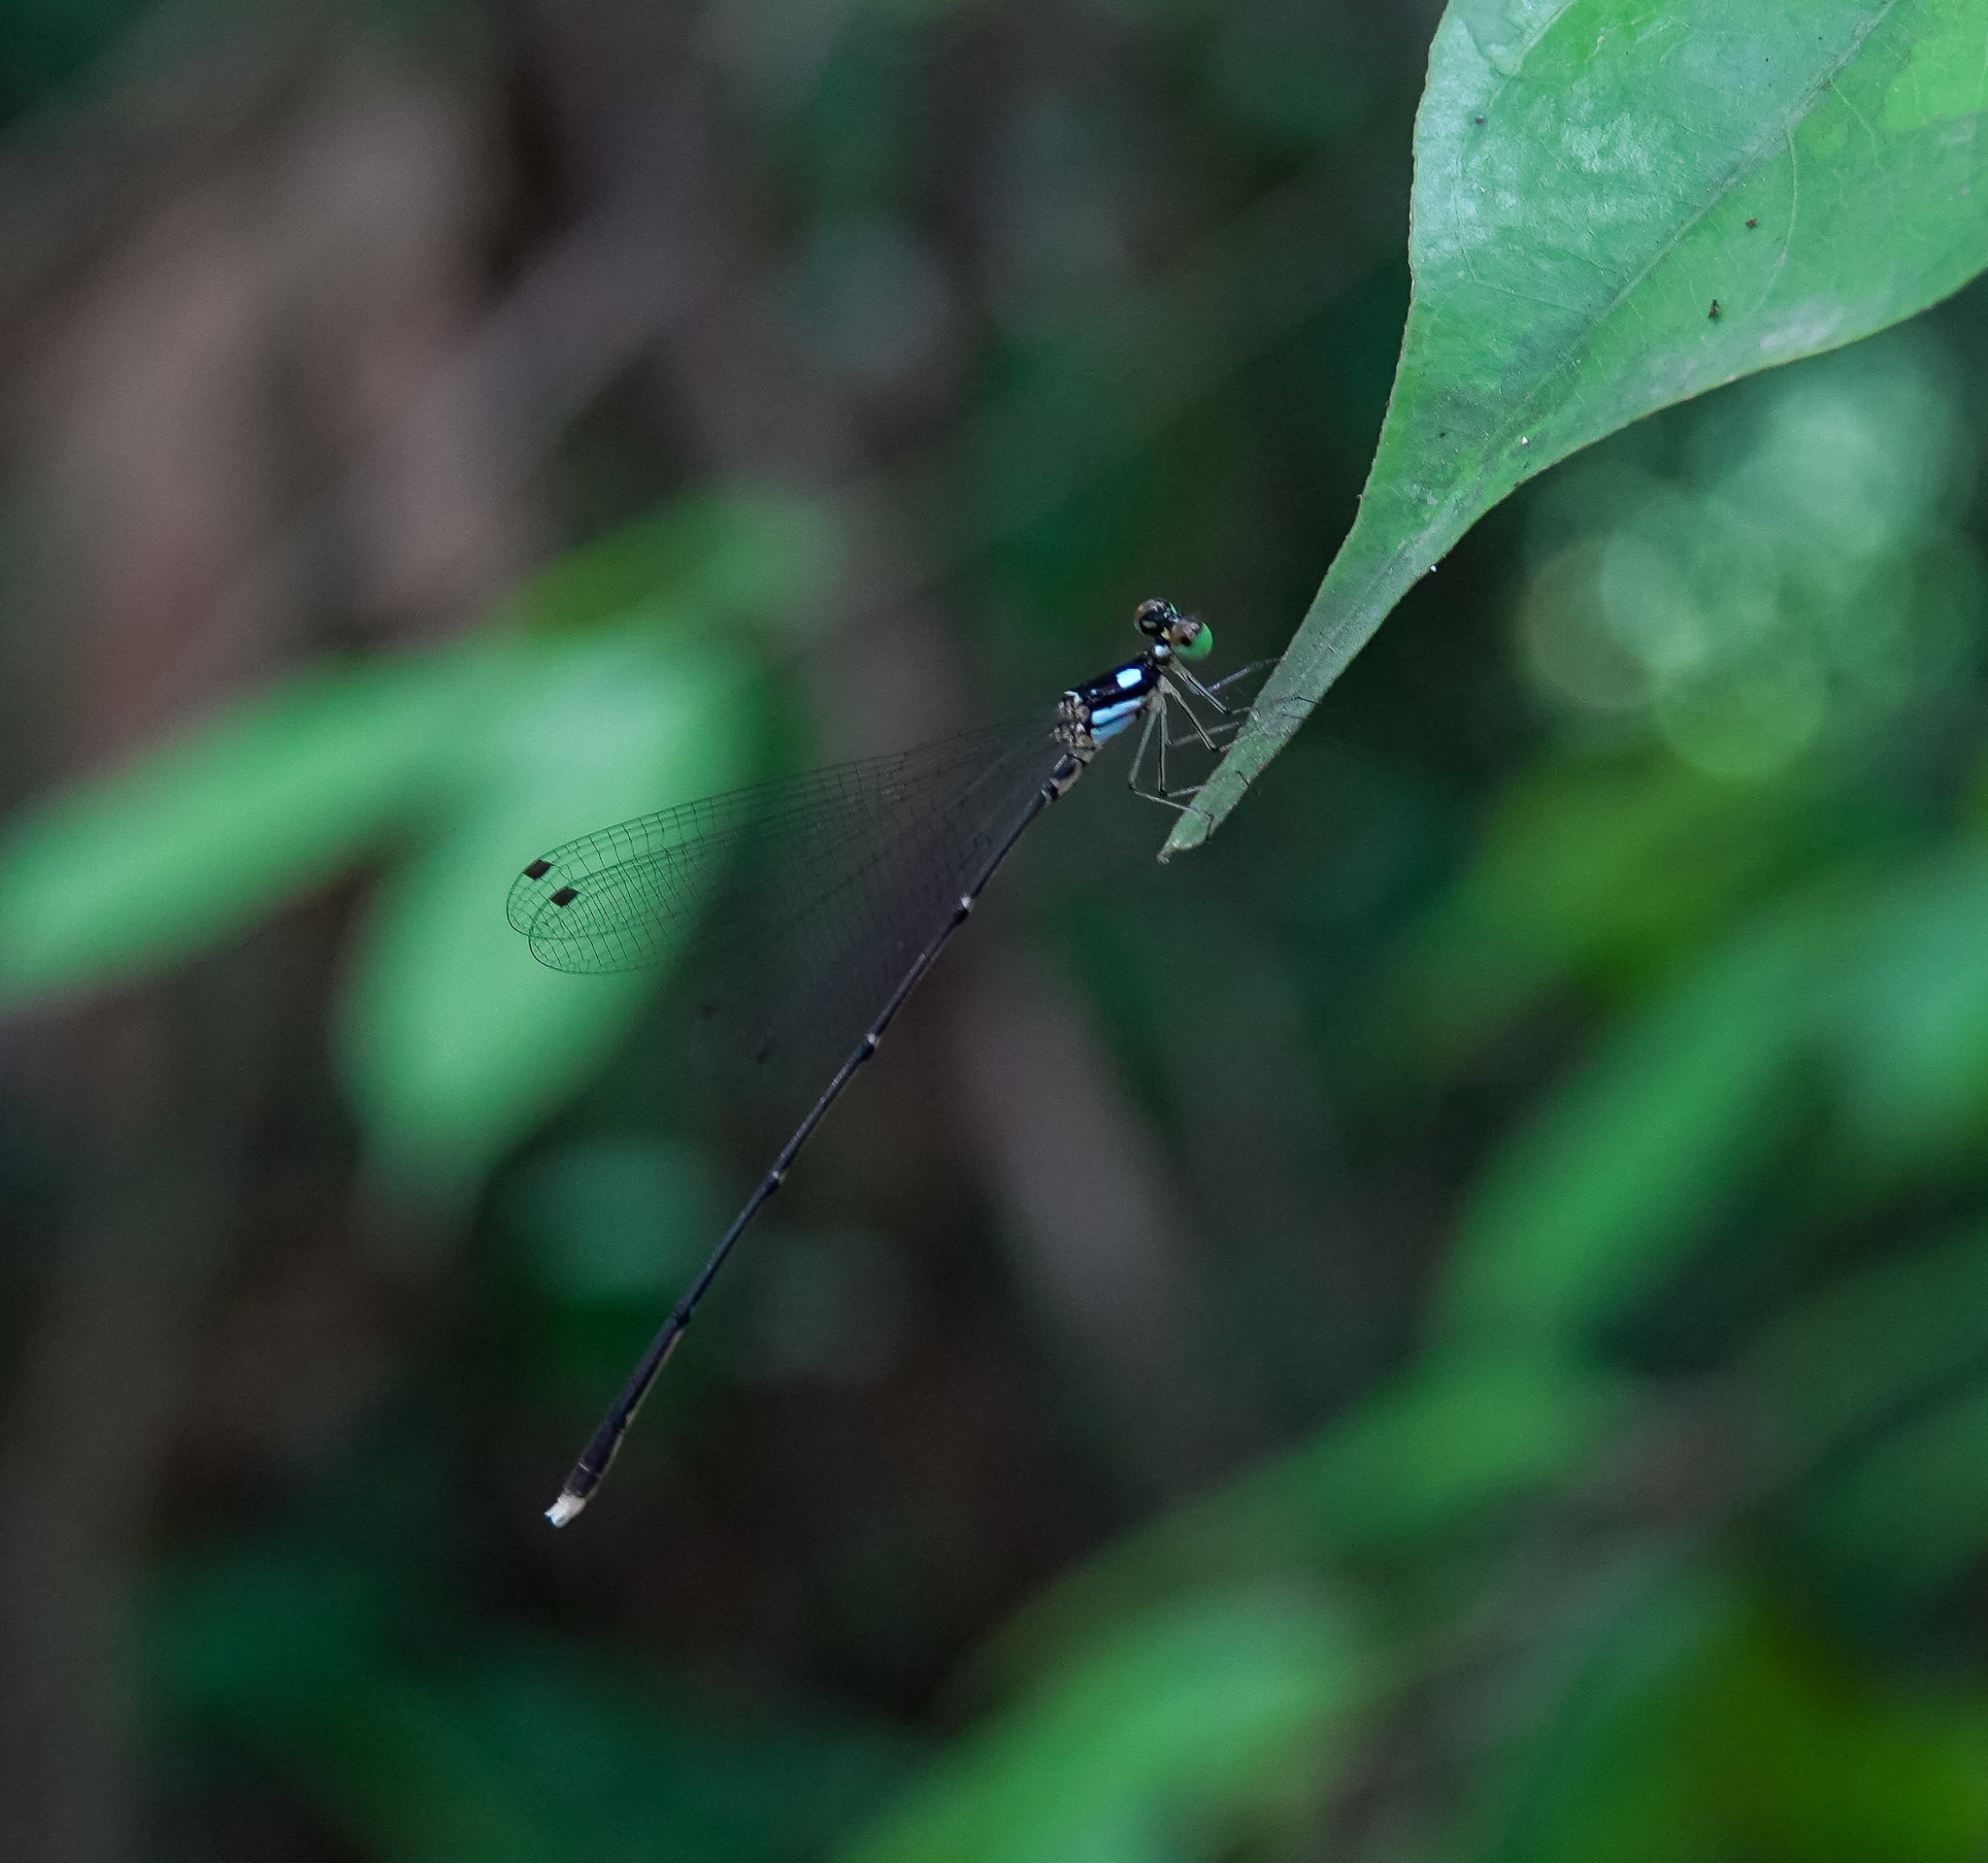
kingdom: Animalia
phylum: Arthropoda
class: Insecta
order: Odonata
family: Platycnemididae
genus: Coeliccia
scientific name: Coeliccia didyma
